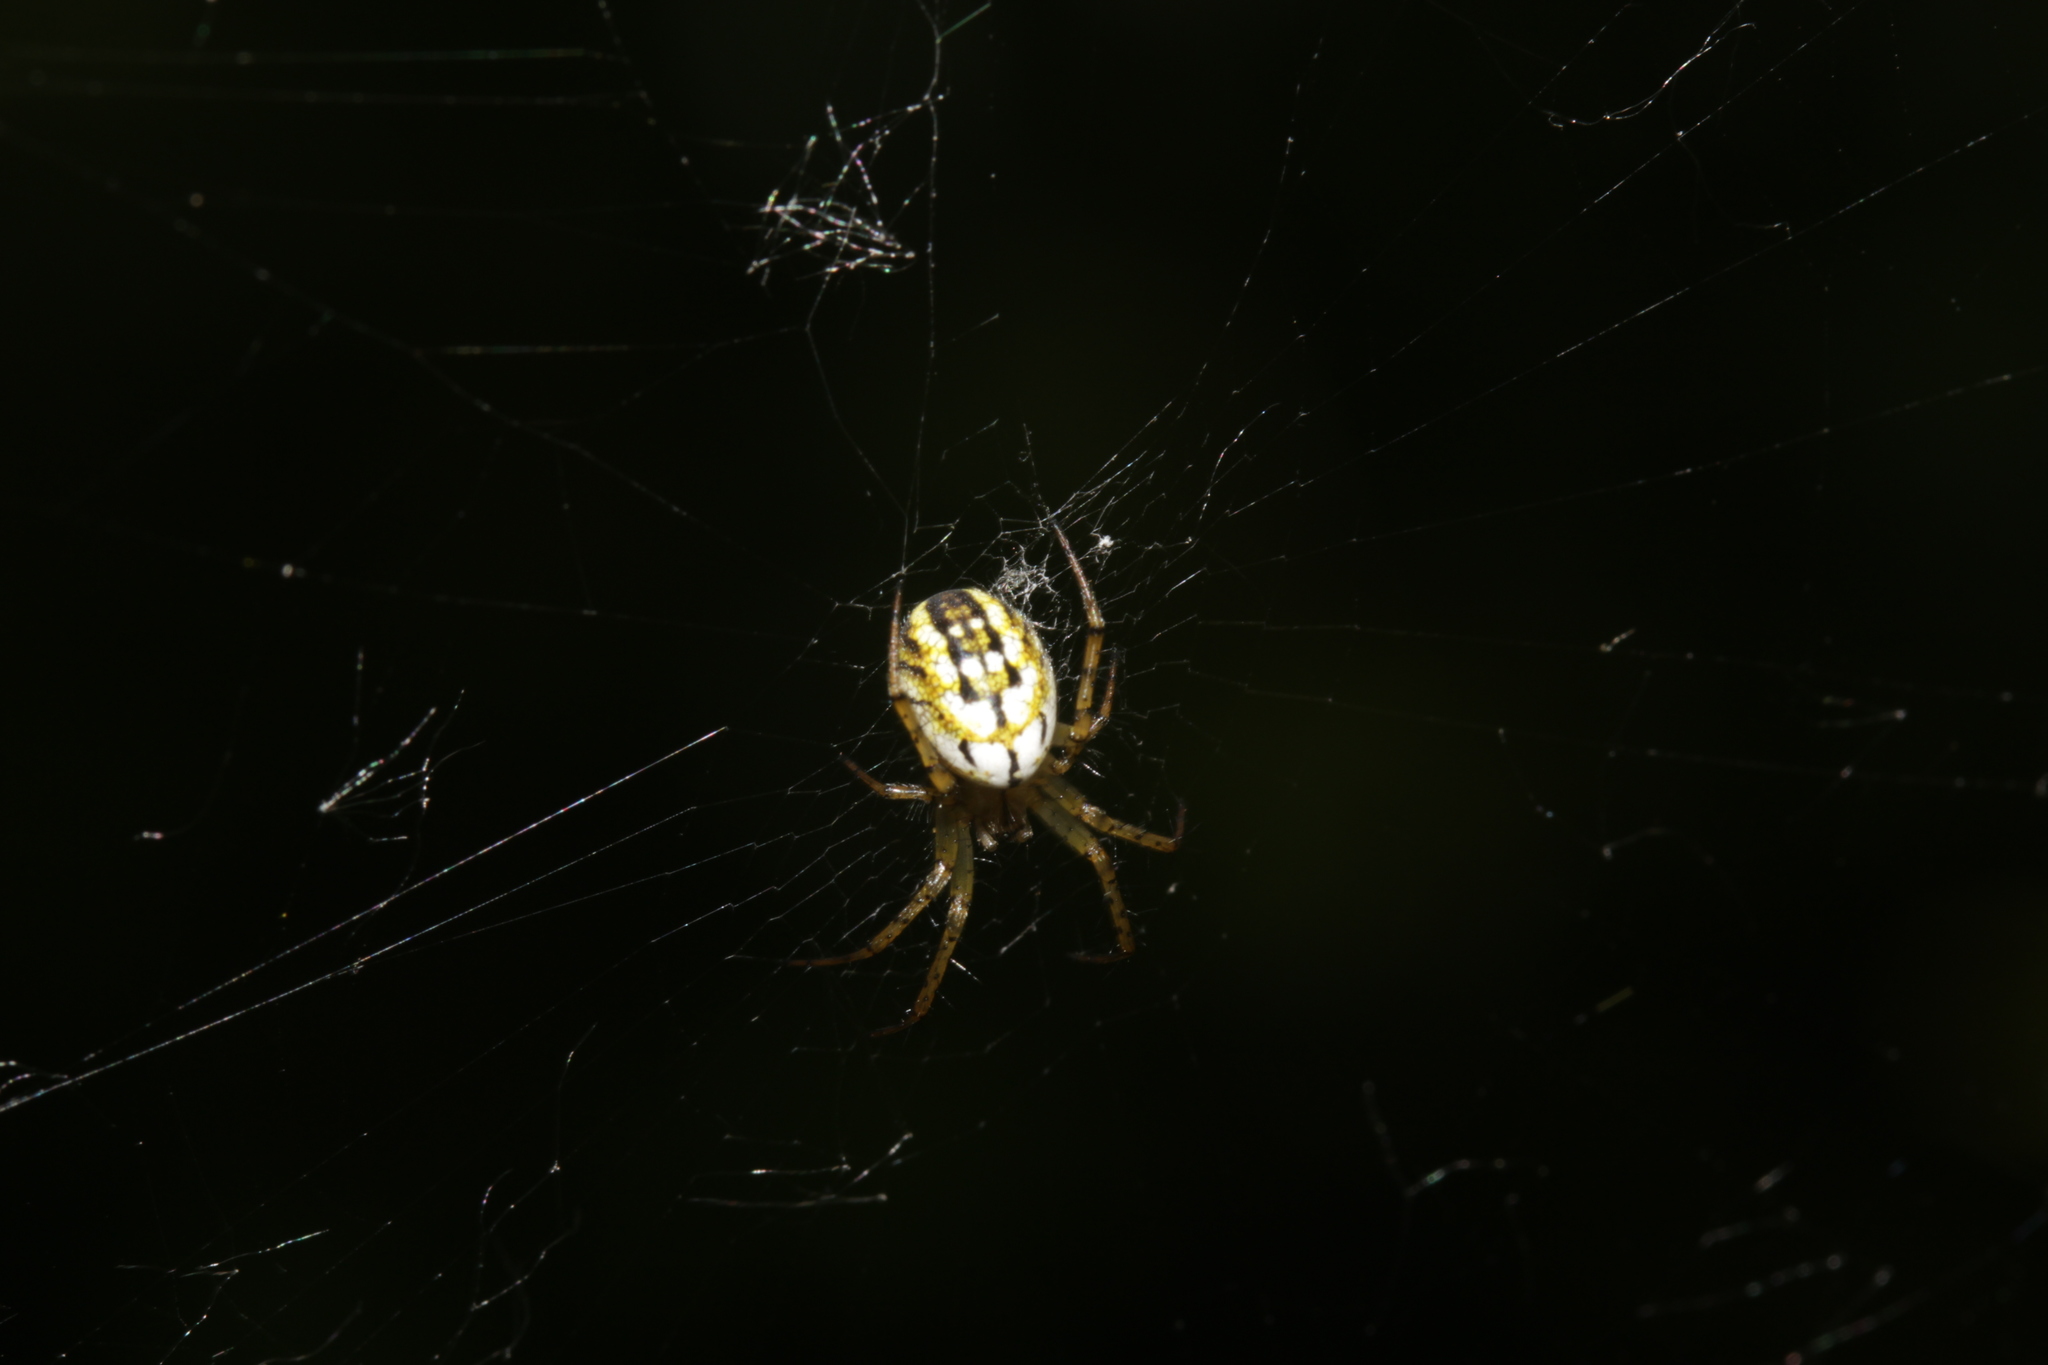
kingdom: Animalia
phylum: Arthropoda
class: Arachnida
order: Araneae
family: Araneidae
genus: Mangora
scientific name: Mangora acalypha
